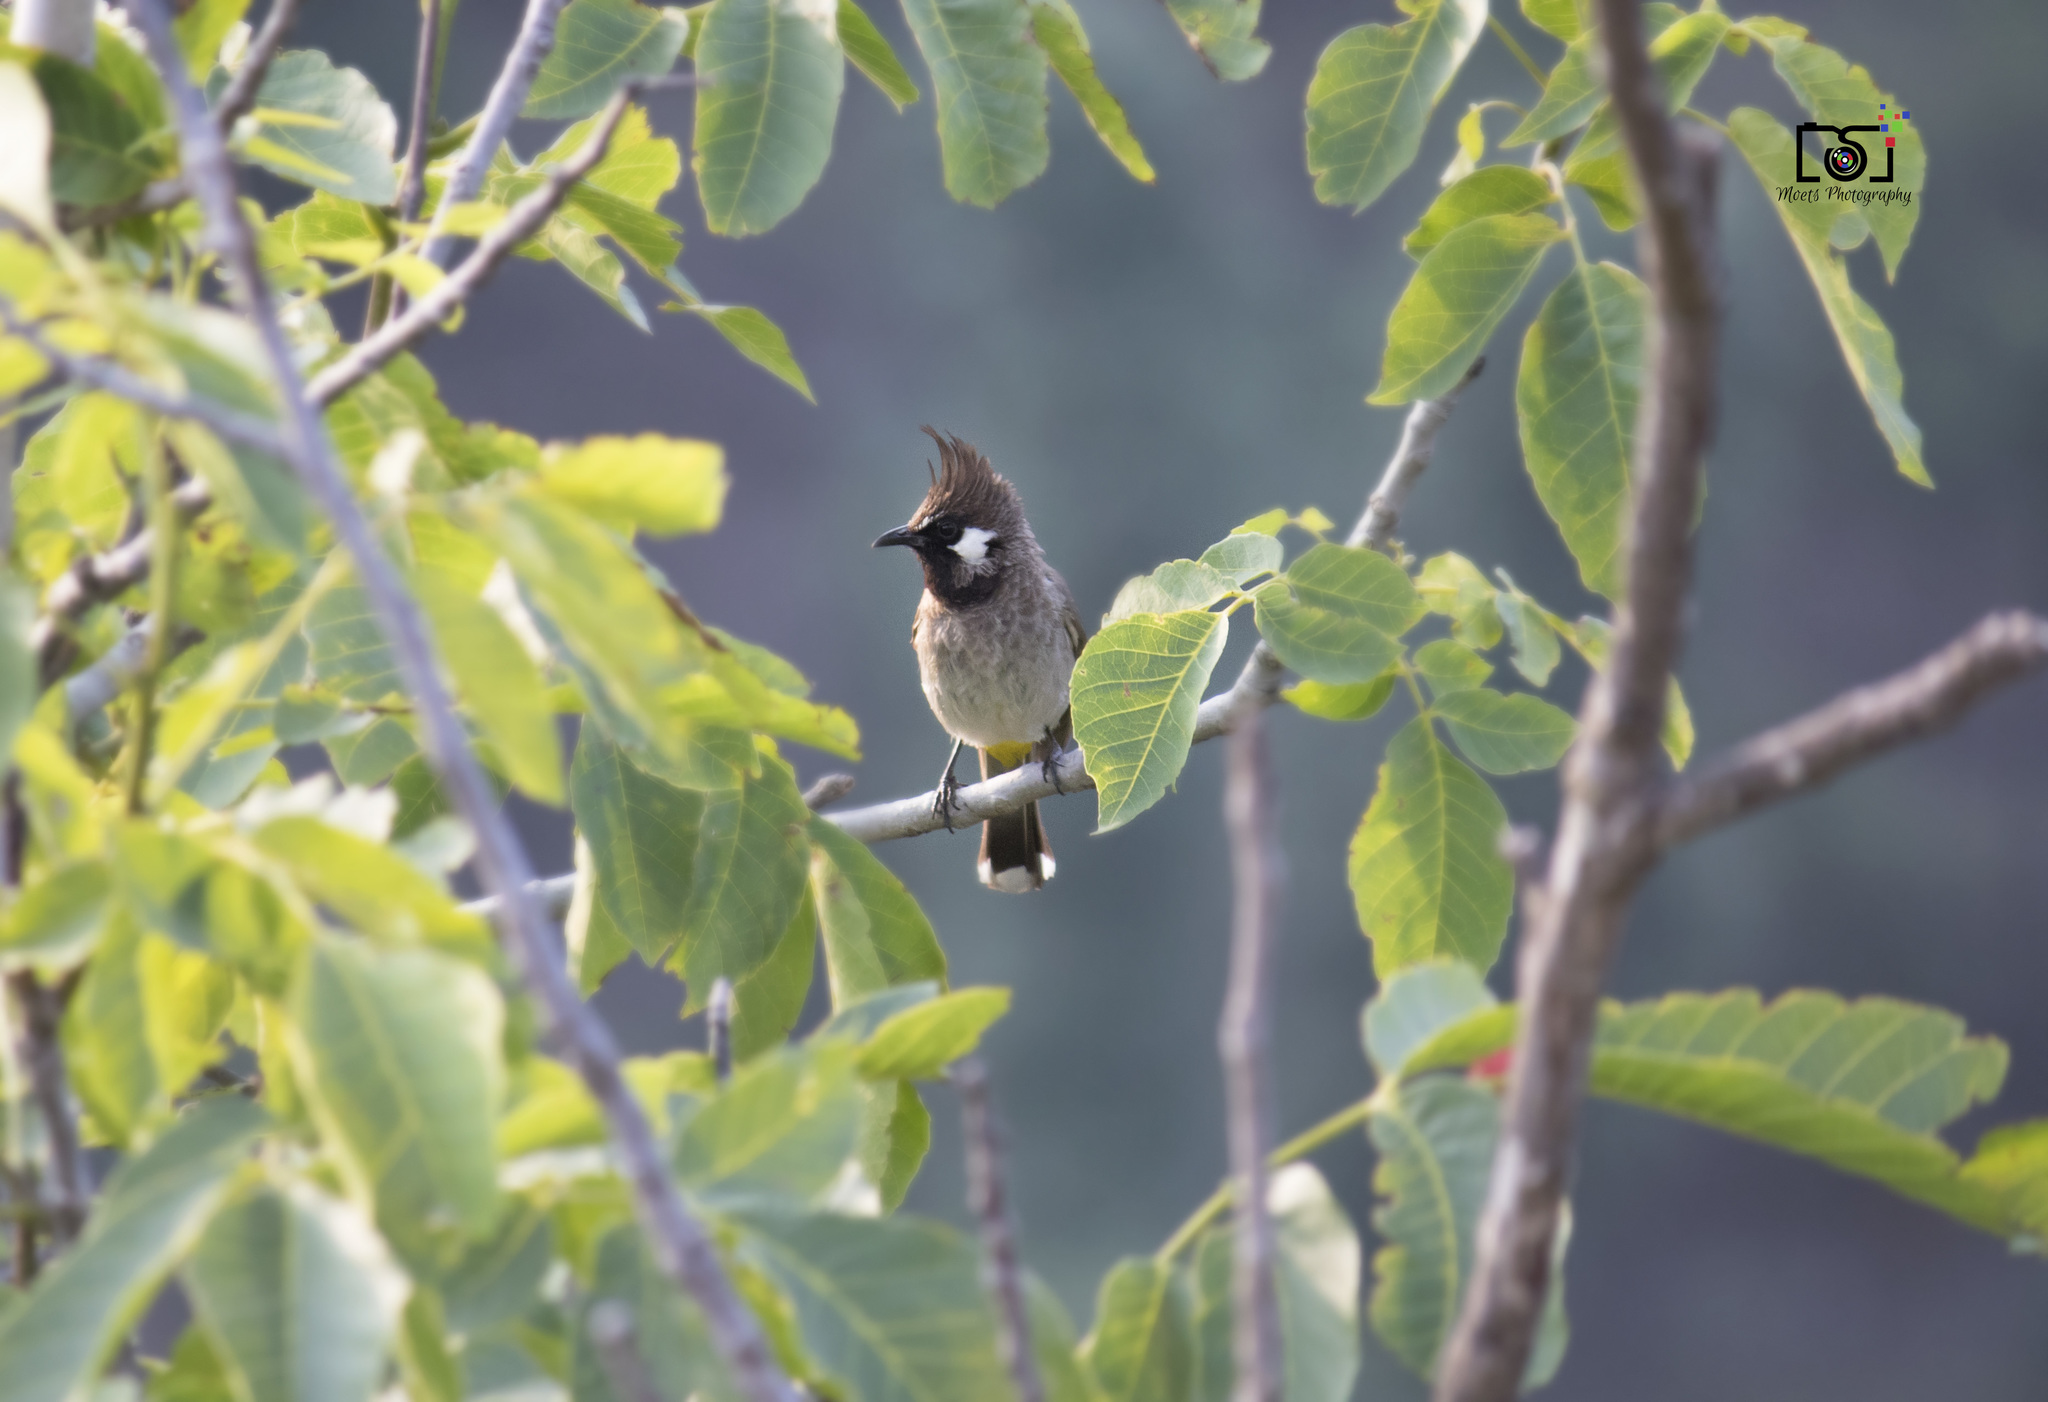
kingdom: Animalia
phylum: Chordata
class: Aves
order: Passeriformes
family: Pycnonotidae
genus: Pycnonotus
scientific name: Pycnonotus leucogenys
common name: Himalayan bulbul
